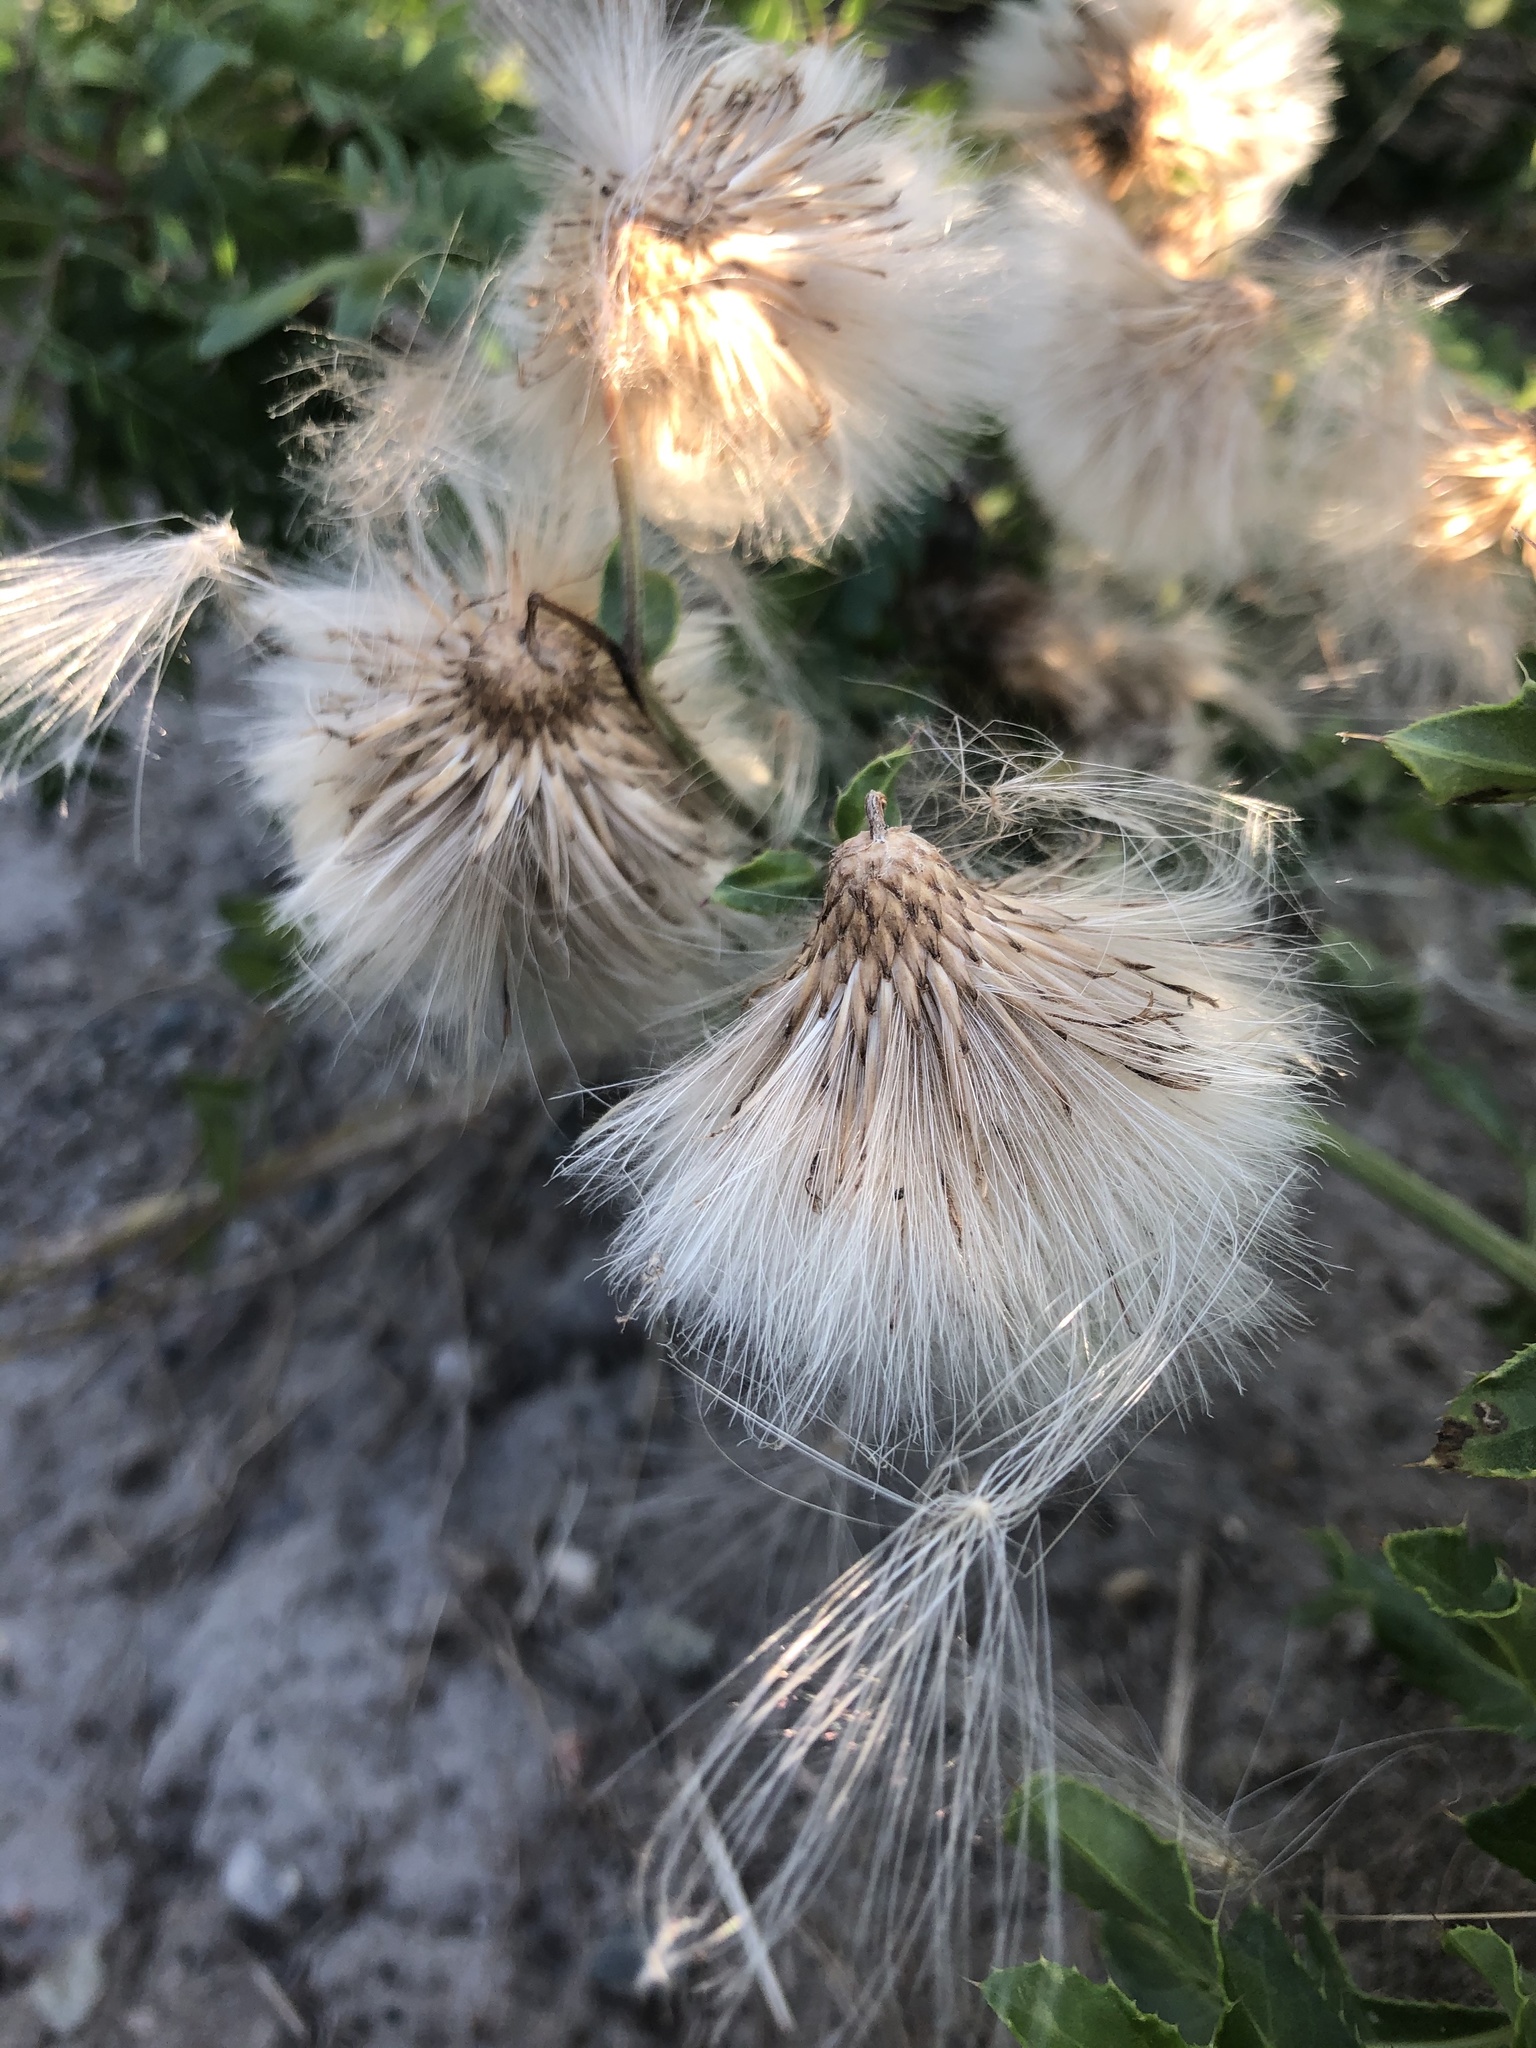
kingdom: Plantae
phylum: Tracheophyta
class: Magnoliopsida
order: Asterales
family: Asteraceae
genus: Cirsium
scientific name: Cirsium arvense
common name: Creeping thistle
